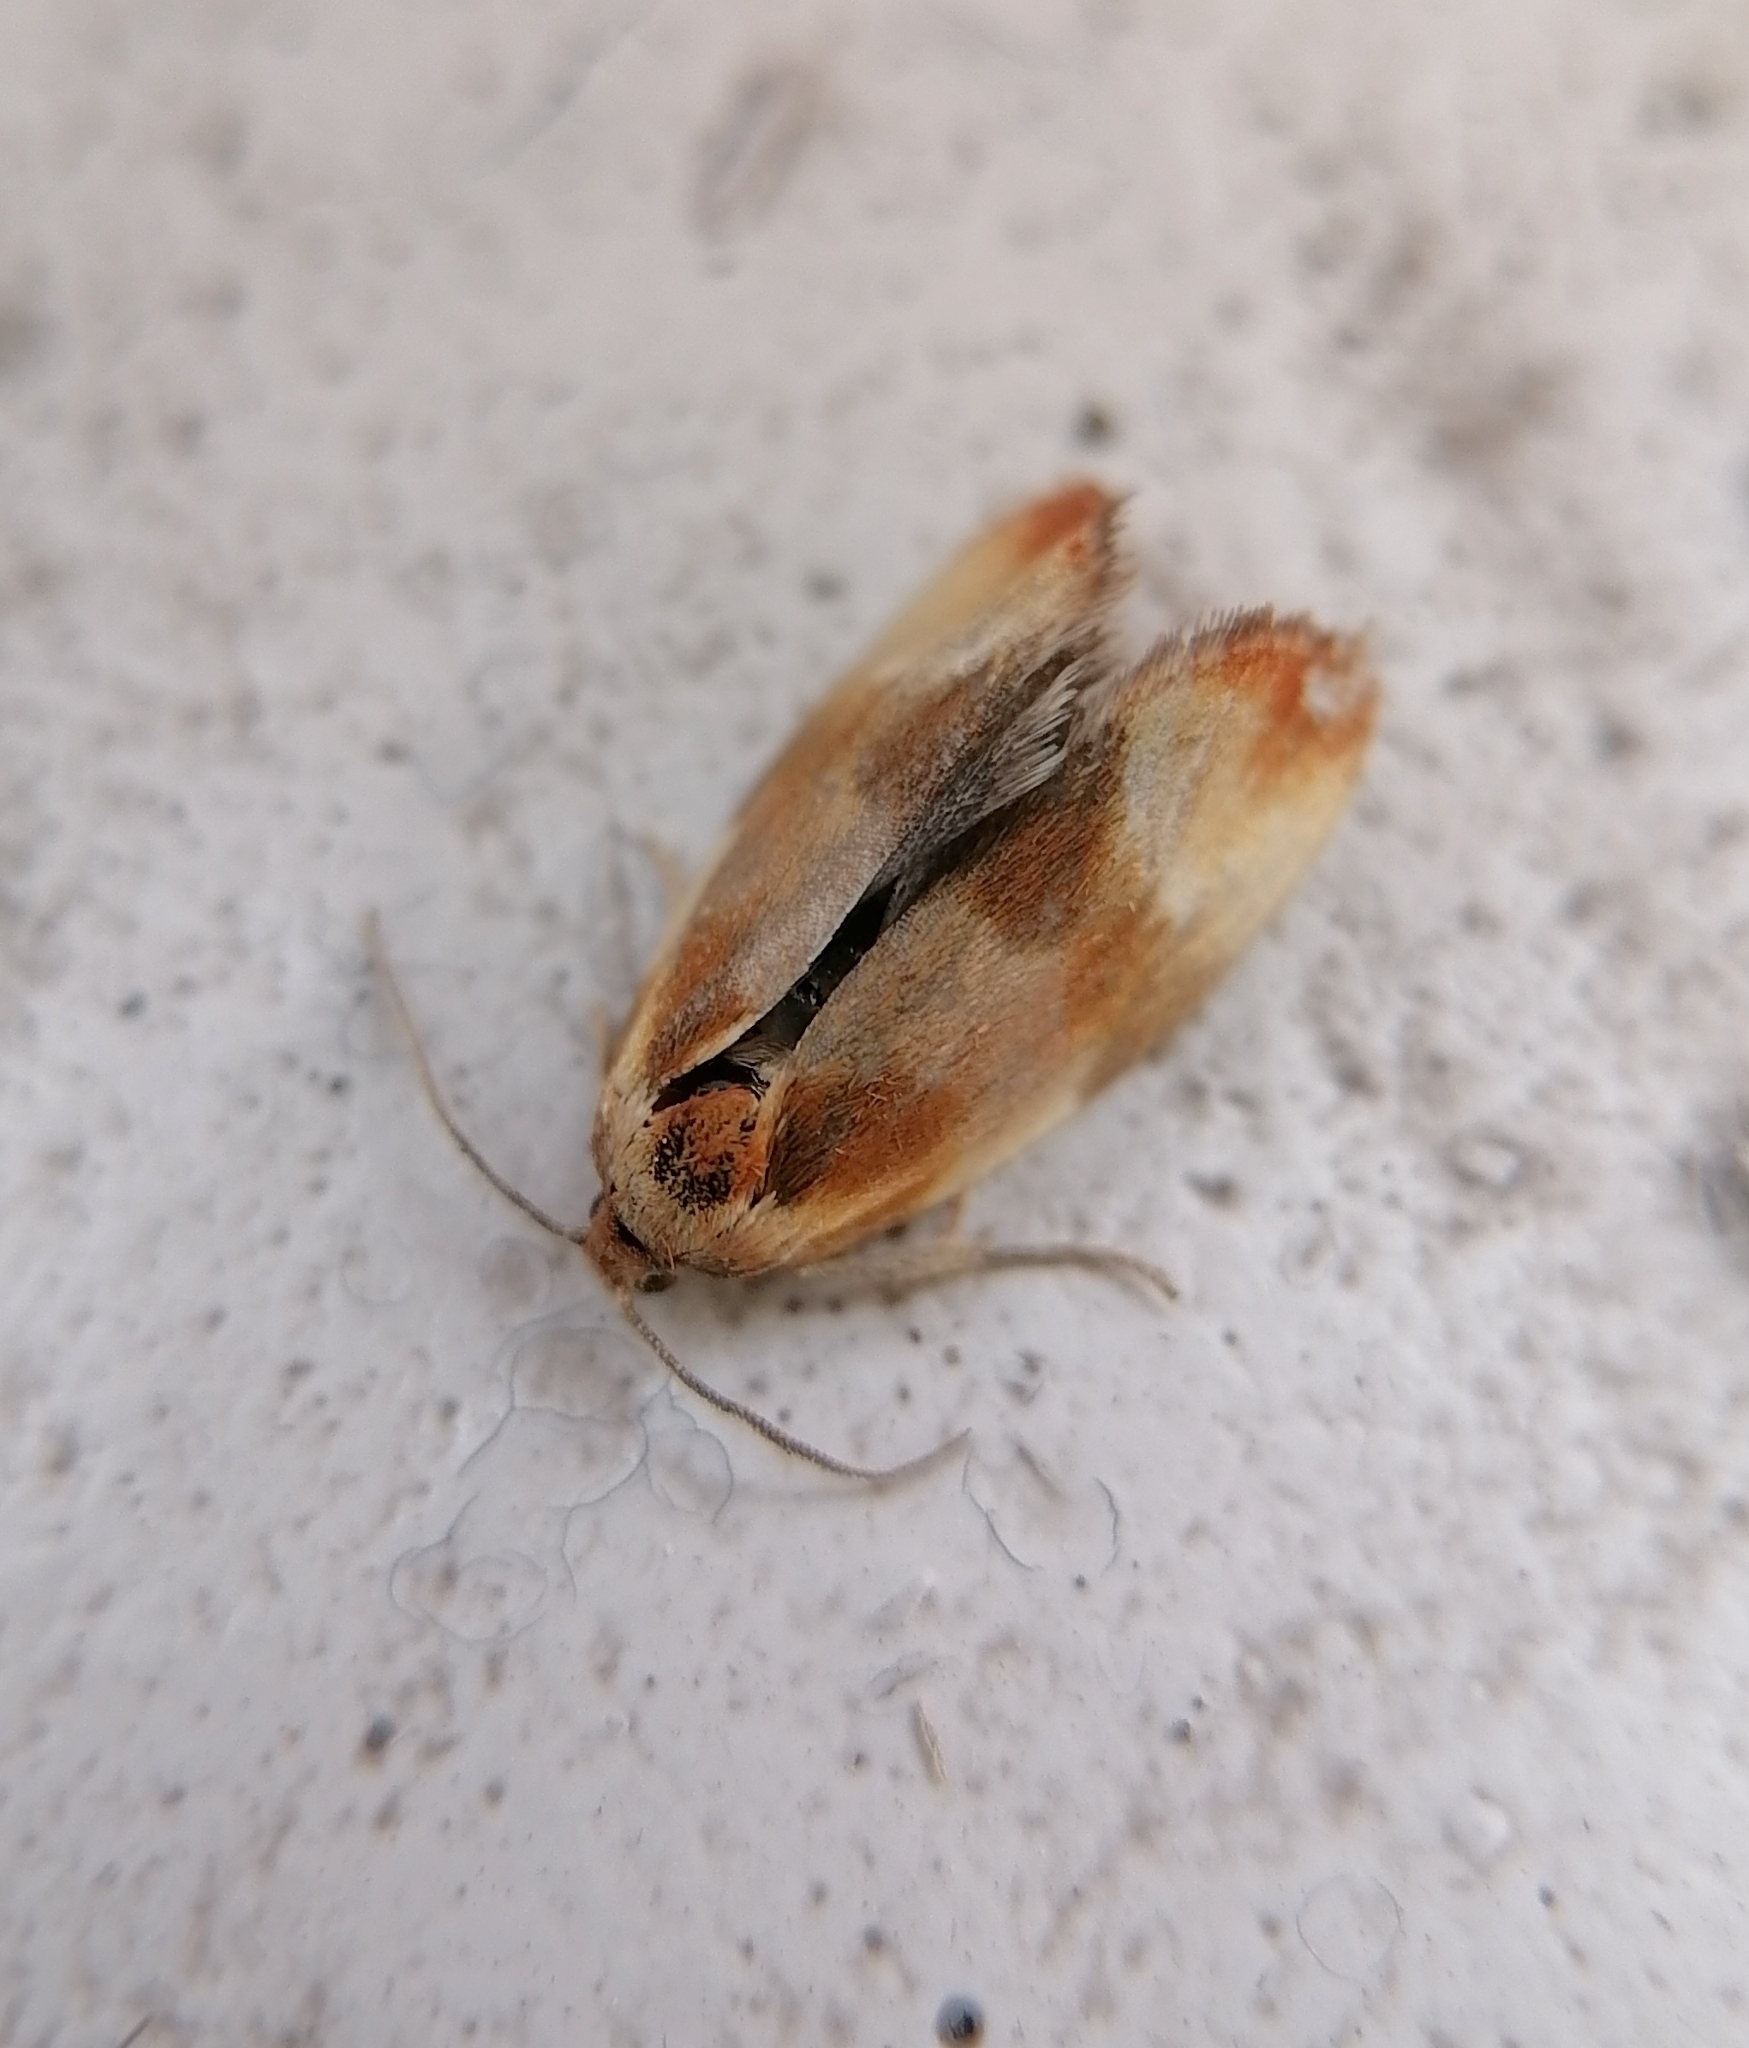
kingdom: Animalia
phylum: Arthropoda
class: Insecta
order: Lepidoptera
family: Tortricidae
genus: Eulia
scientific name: Eulia ministrana
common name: Brassy twist
